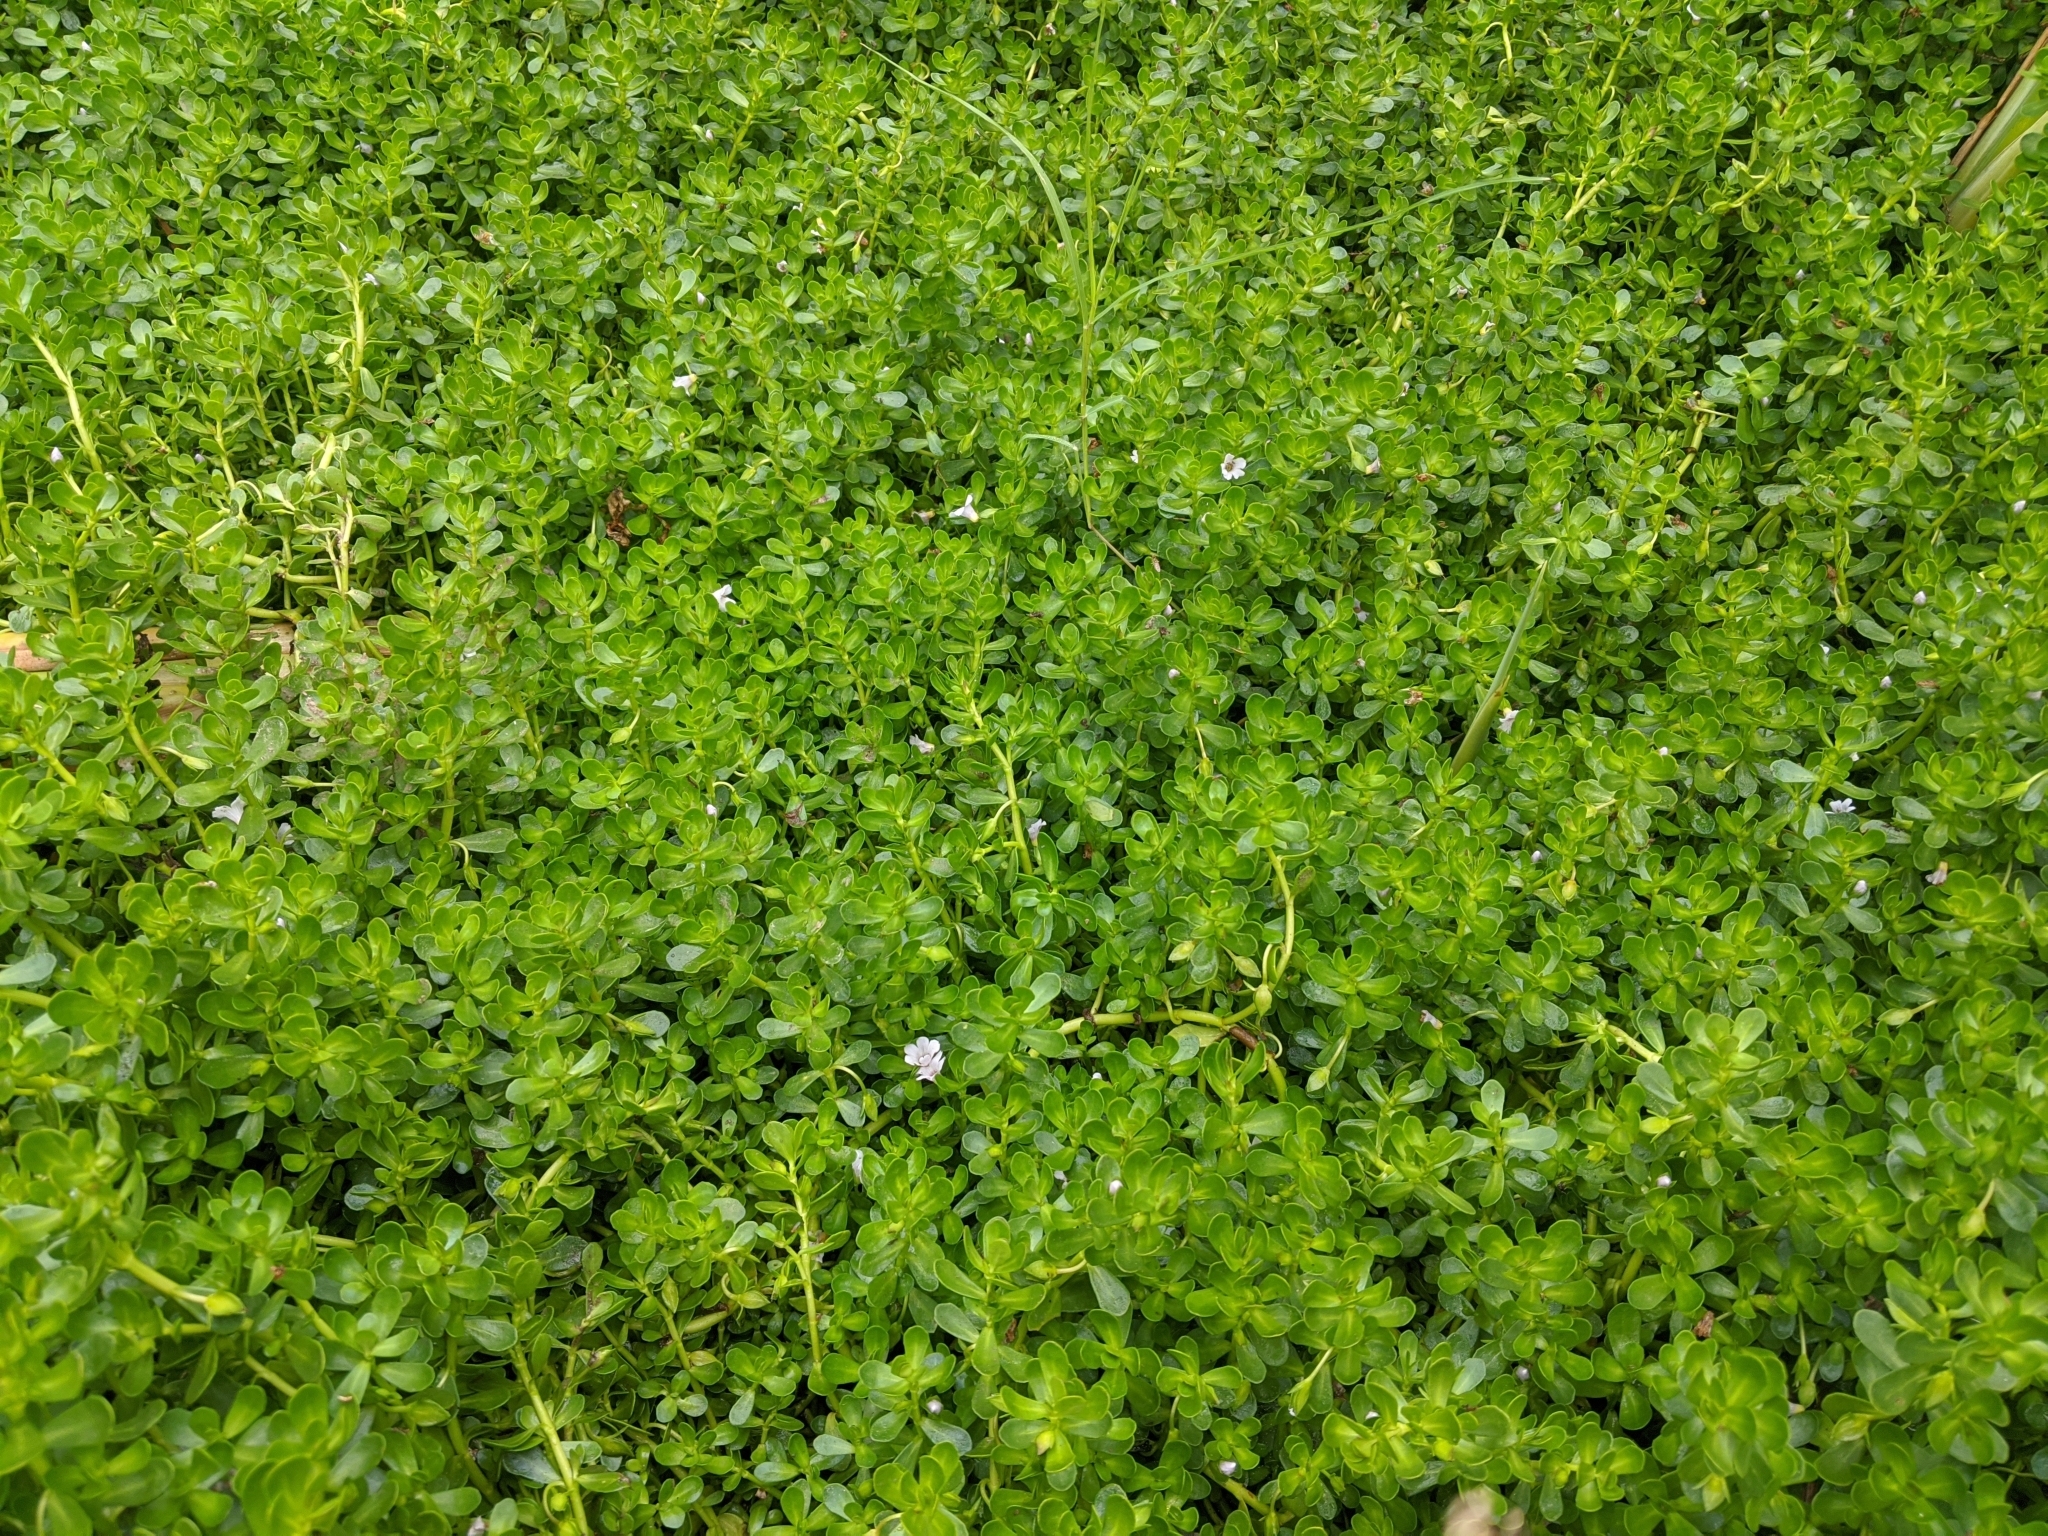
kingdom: Plantae
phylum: Tracheophyta
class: Magnoliopsida
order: Lamiales
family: Plantaginaceae
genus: Bacopa
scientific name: Bacopa monnieri
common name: Indian-pennywort
